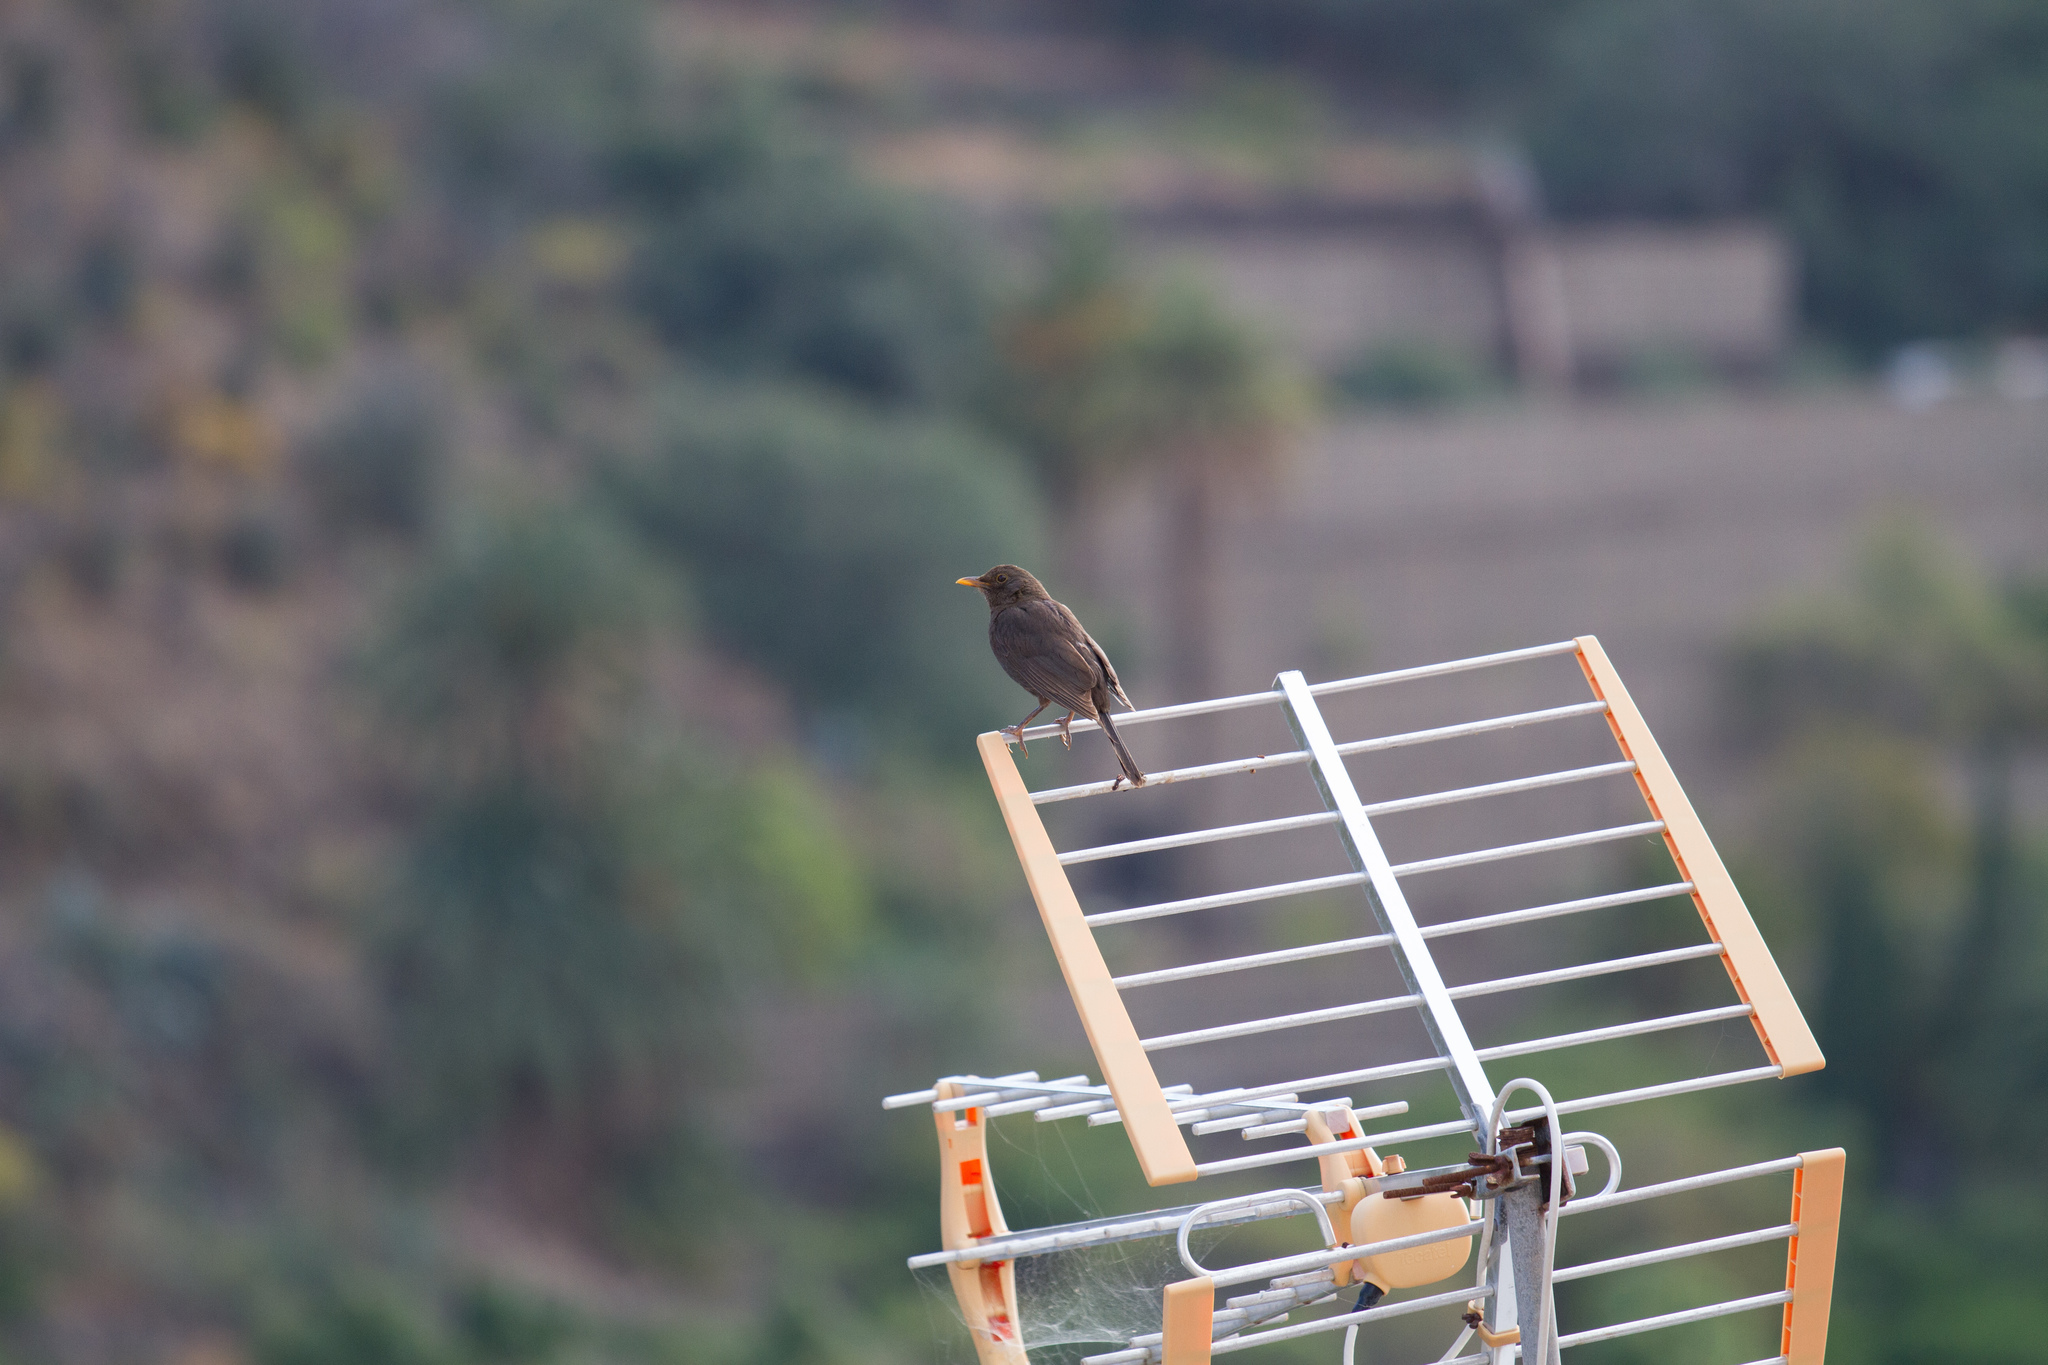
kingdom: Animalia
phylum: Chordata
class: Aves
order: Passeriformes
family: Turdidae
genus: Turdus
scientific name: Turdus merula
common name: Common blackbird
